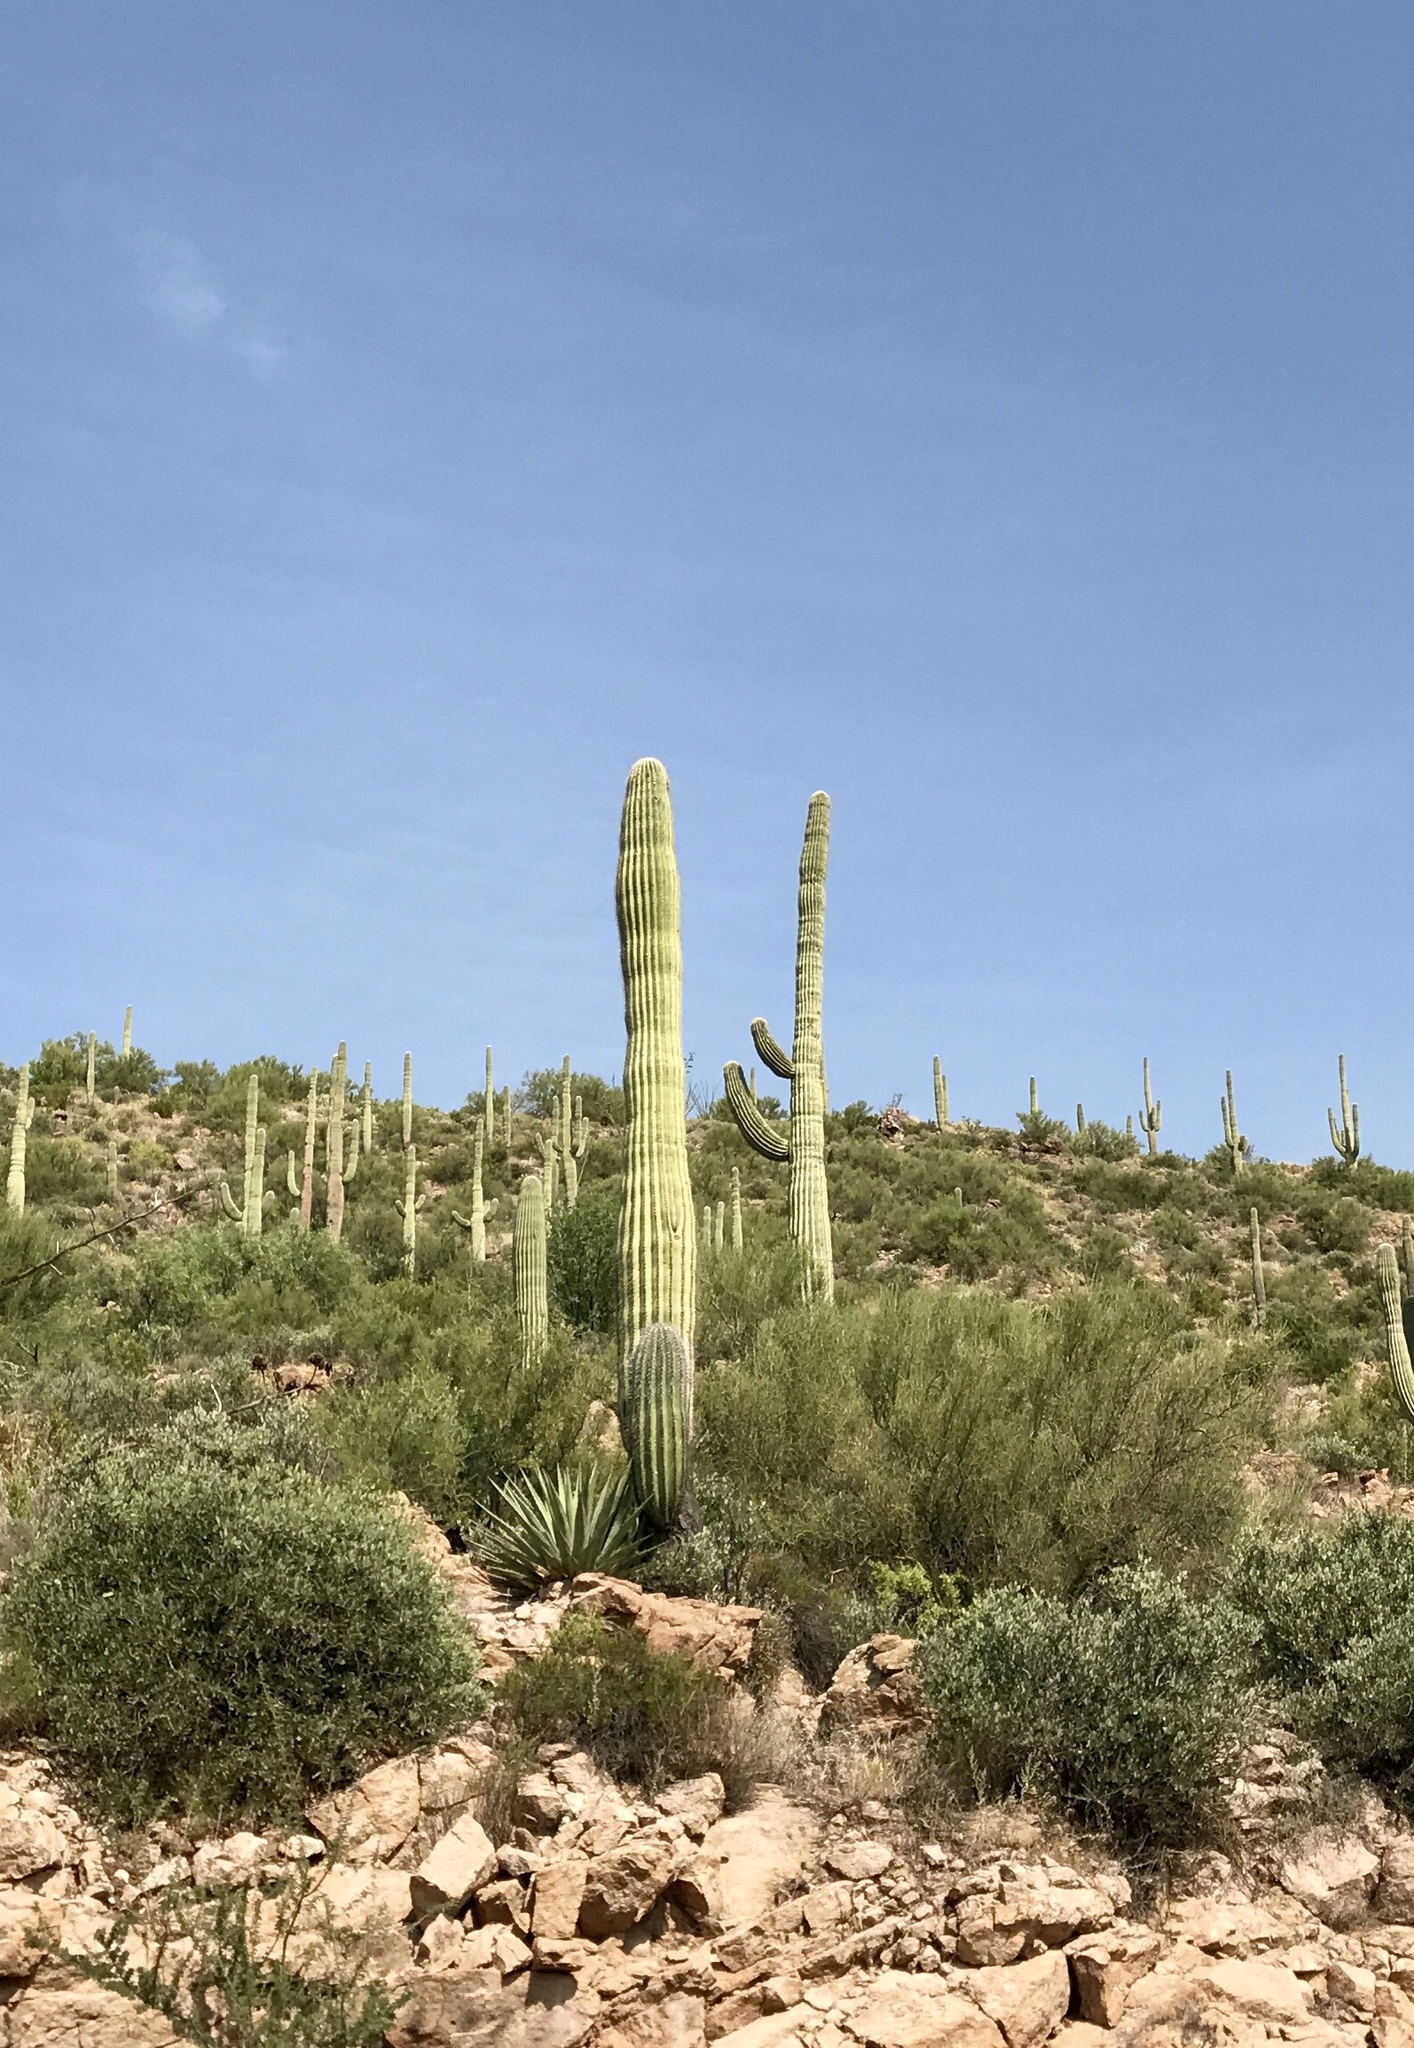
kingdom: Plantae
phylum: Tracheophyta
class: Magnoliopsida
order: Caryophyllales
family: Cactaceae
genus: Carnegiea
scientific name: Carnegiea gigantea
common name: Saguaro
